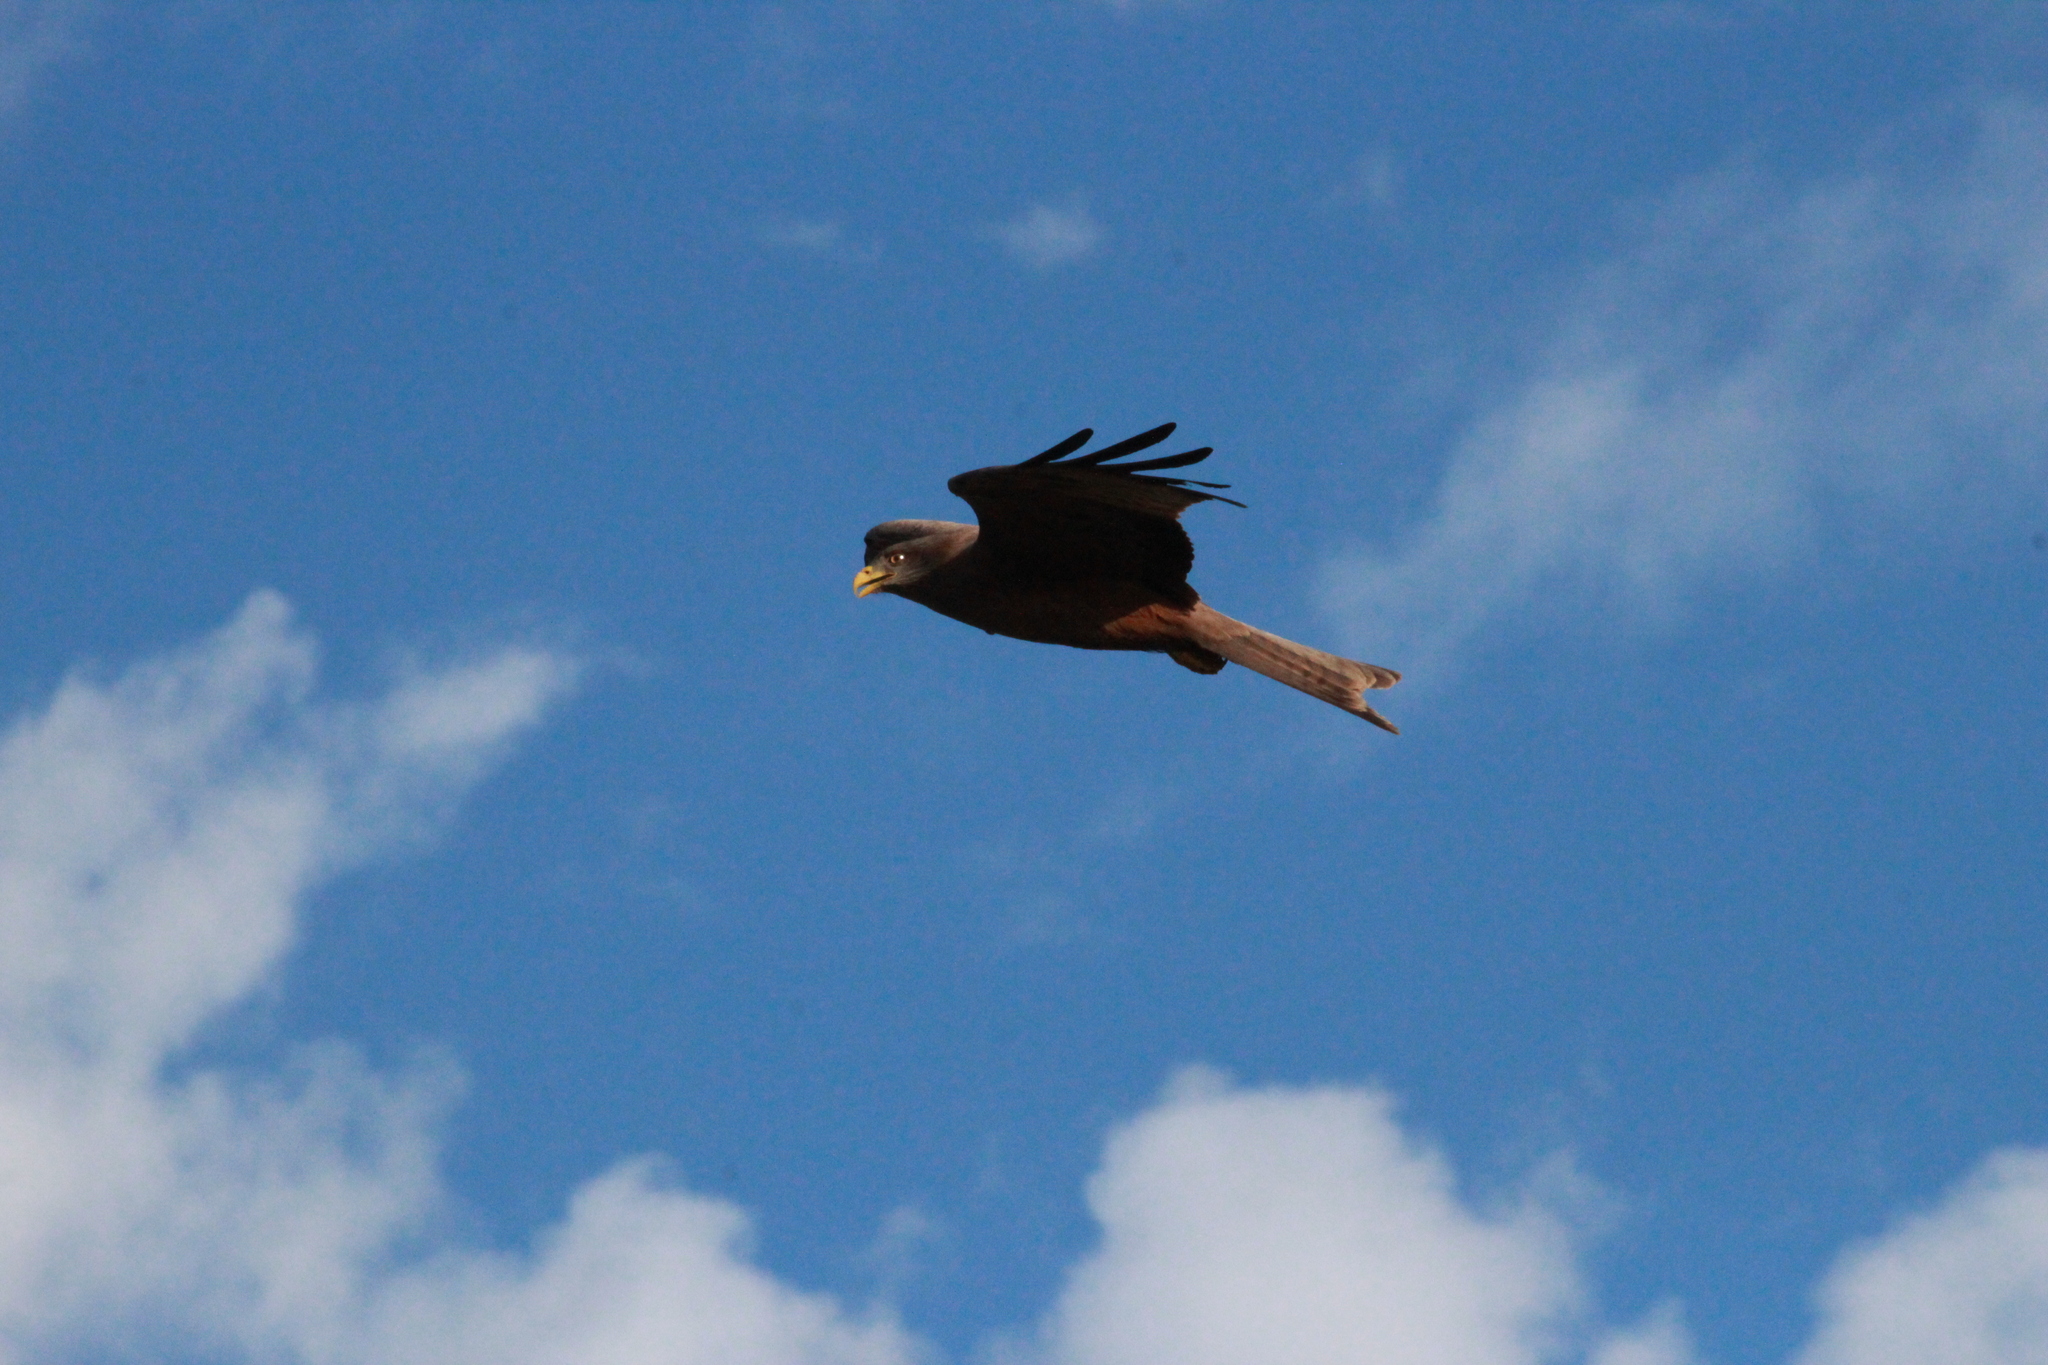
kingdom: Animalia
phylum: Chordata
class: Aves
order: Accipitriformes
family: Accipitridae
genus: Milvus
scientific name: Milvus migrans
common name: Black kite
